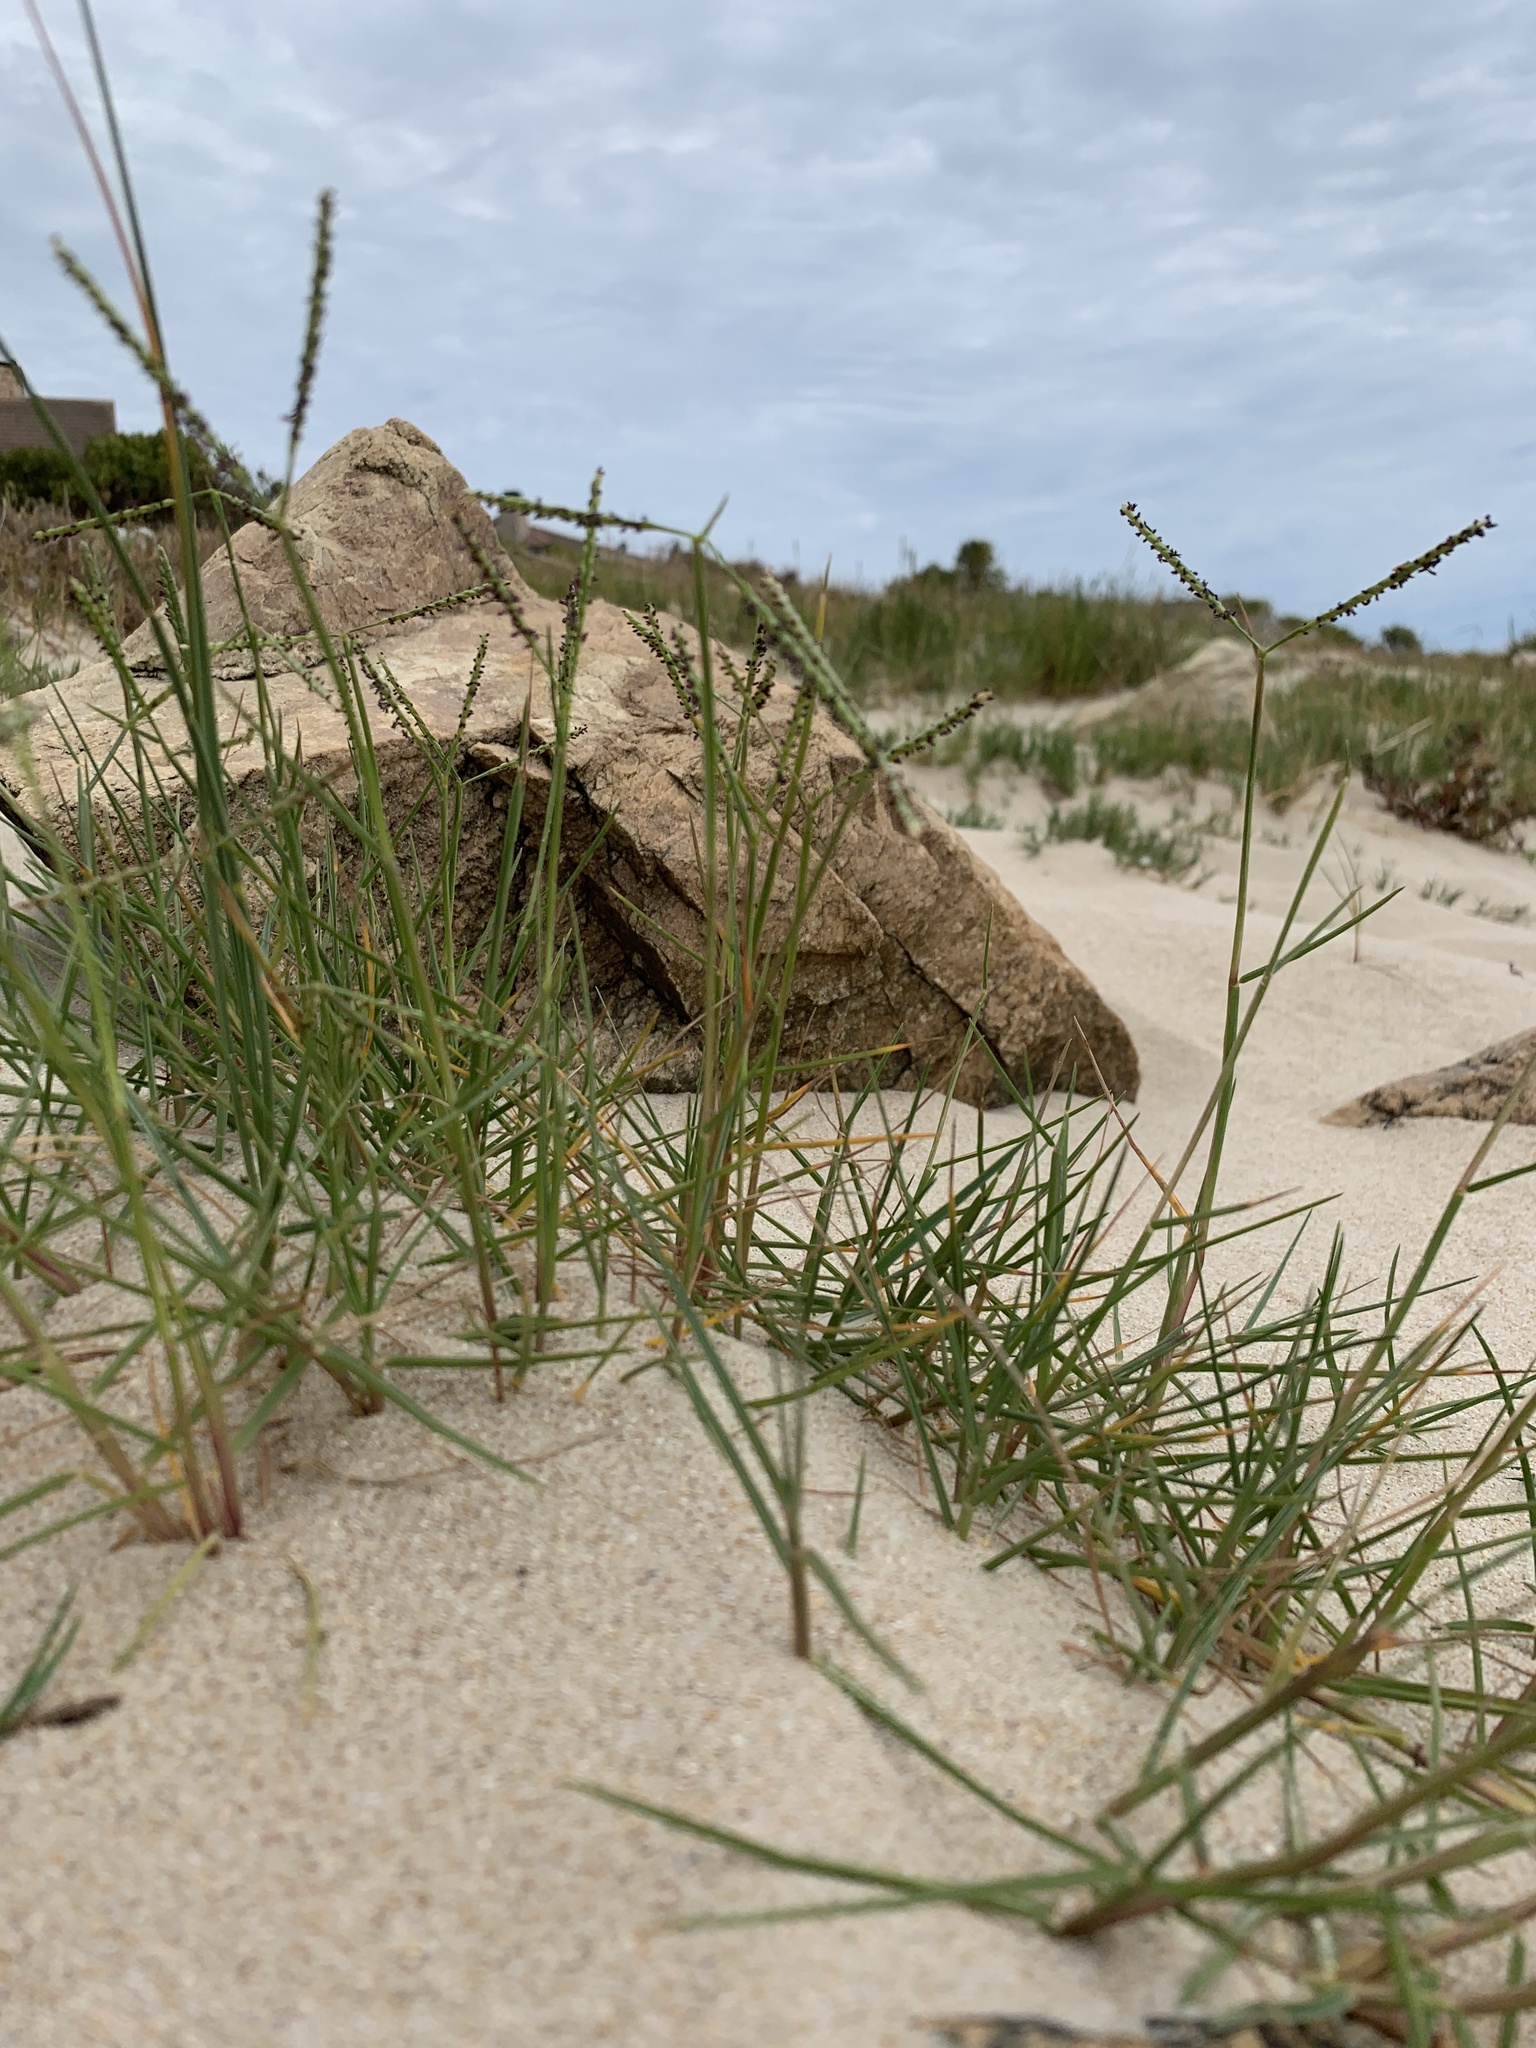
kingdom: Plantae
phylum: Tracheophyta
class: Liliopsida
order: Poales
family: Poaceae
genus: Paspalum
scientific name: Paspalum vaginatum
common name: Seashore paspalum
